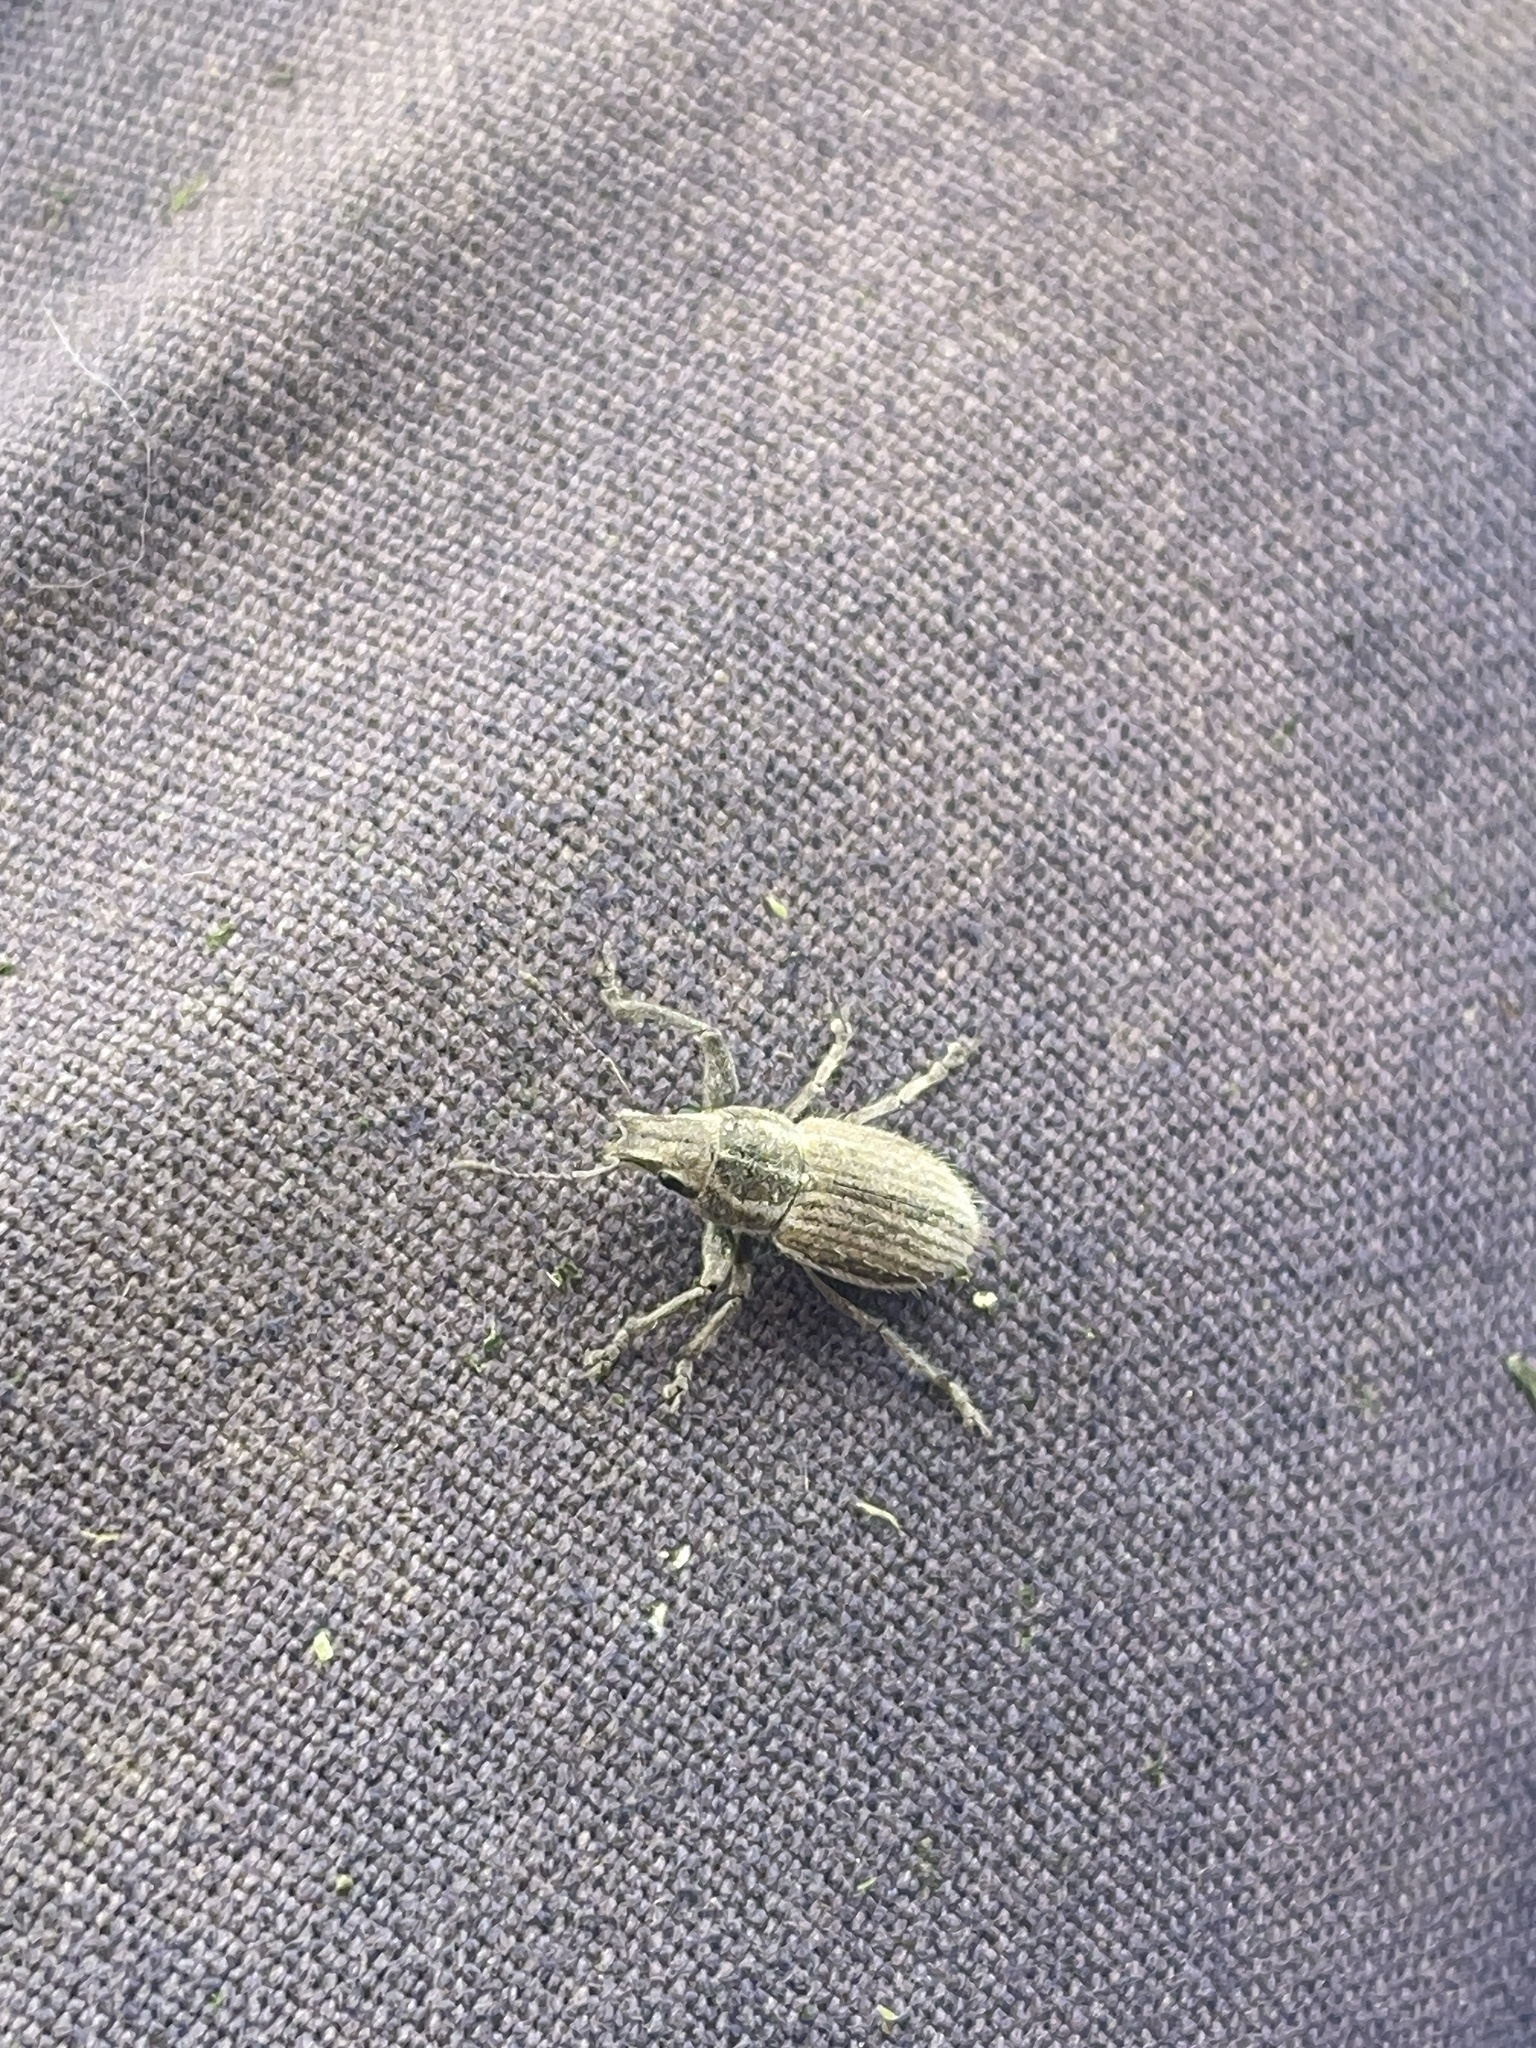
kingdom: Animalia
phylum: Arthropoda
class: Insecta
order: Coleoptera
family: Curculionidae
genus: Naupactus
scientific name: Naupactus leucoloma
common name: Whitefringed beetle
